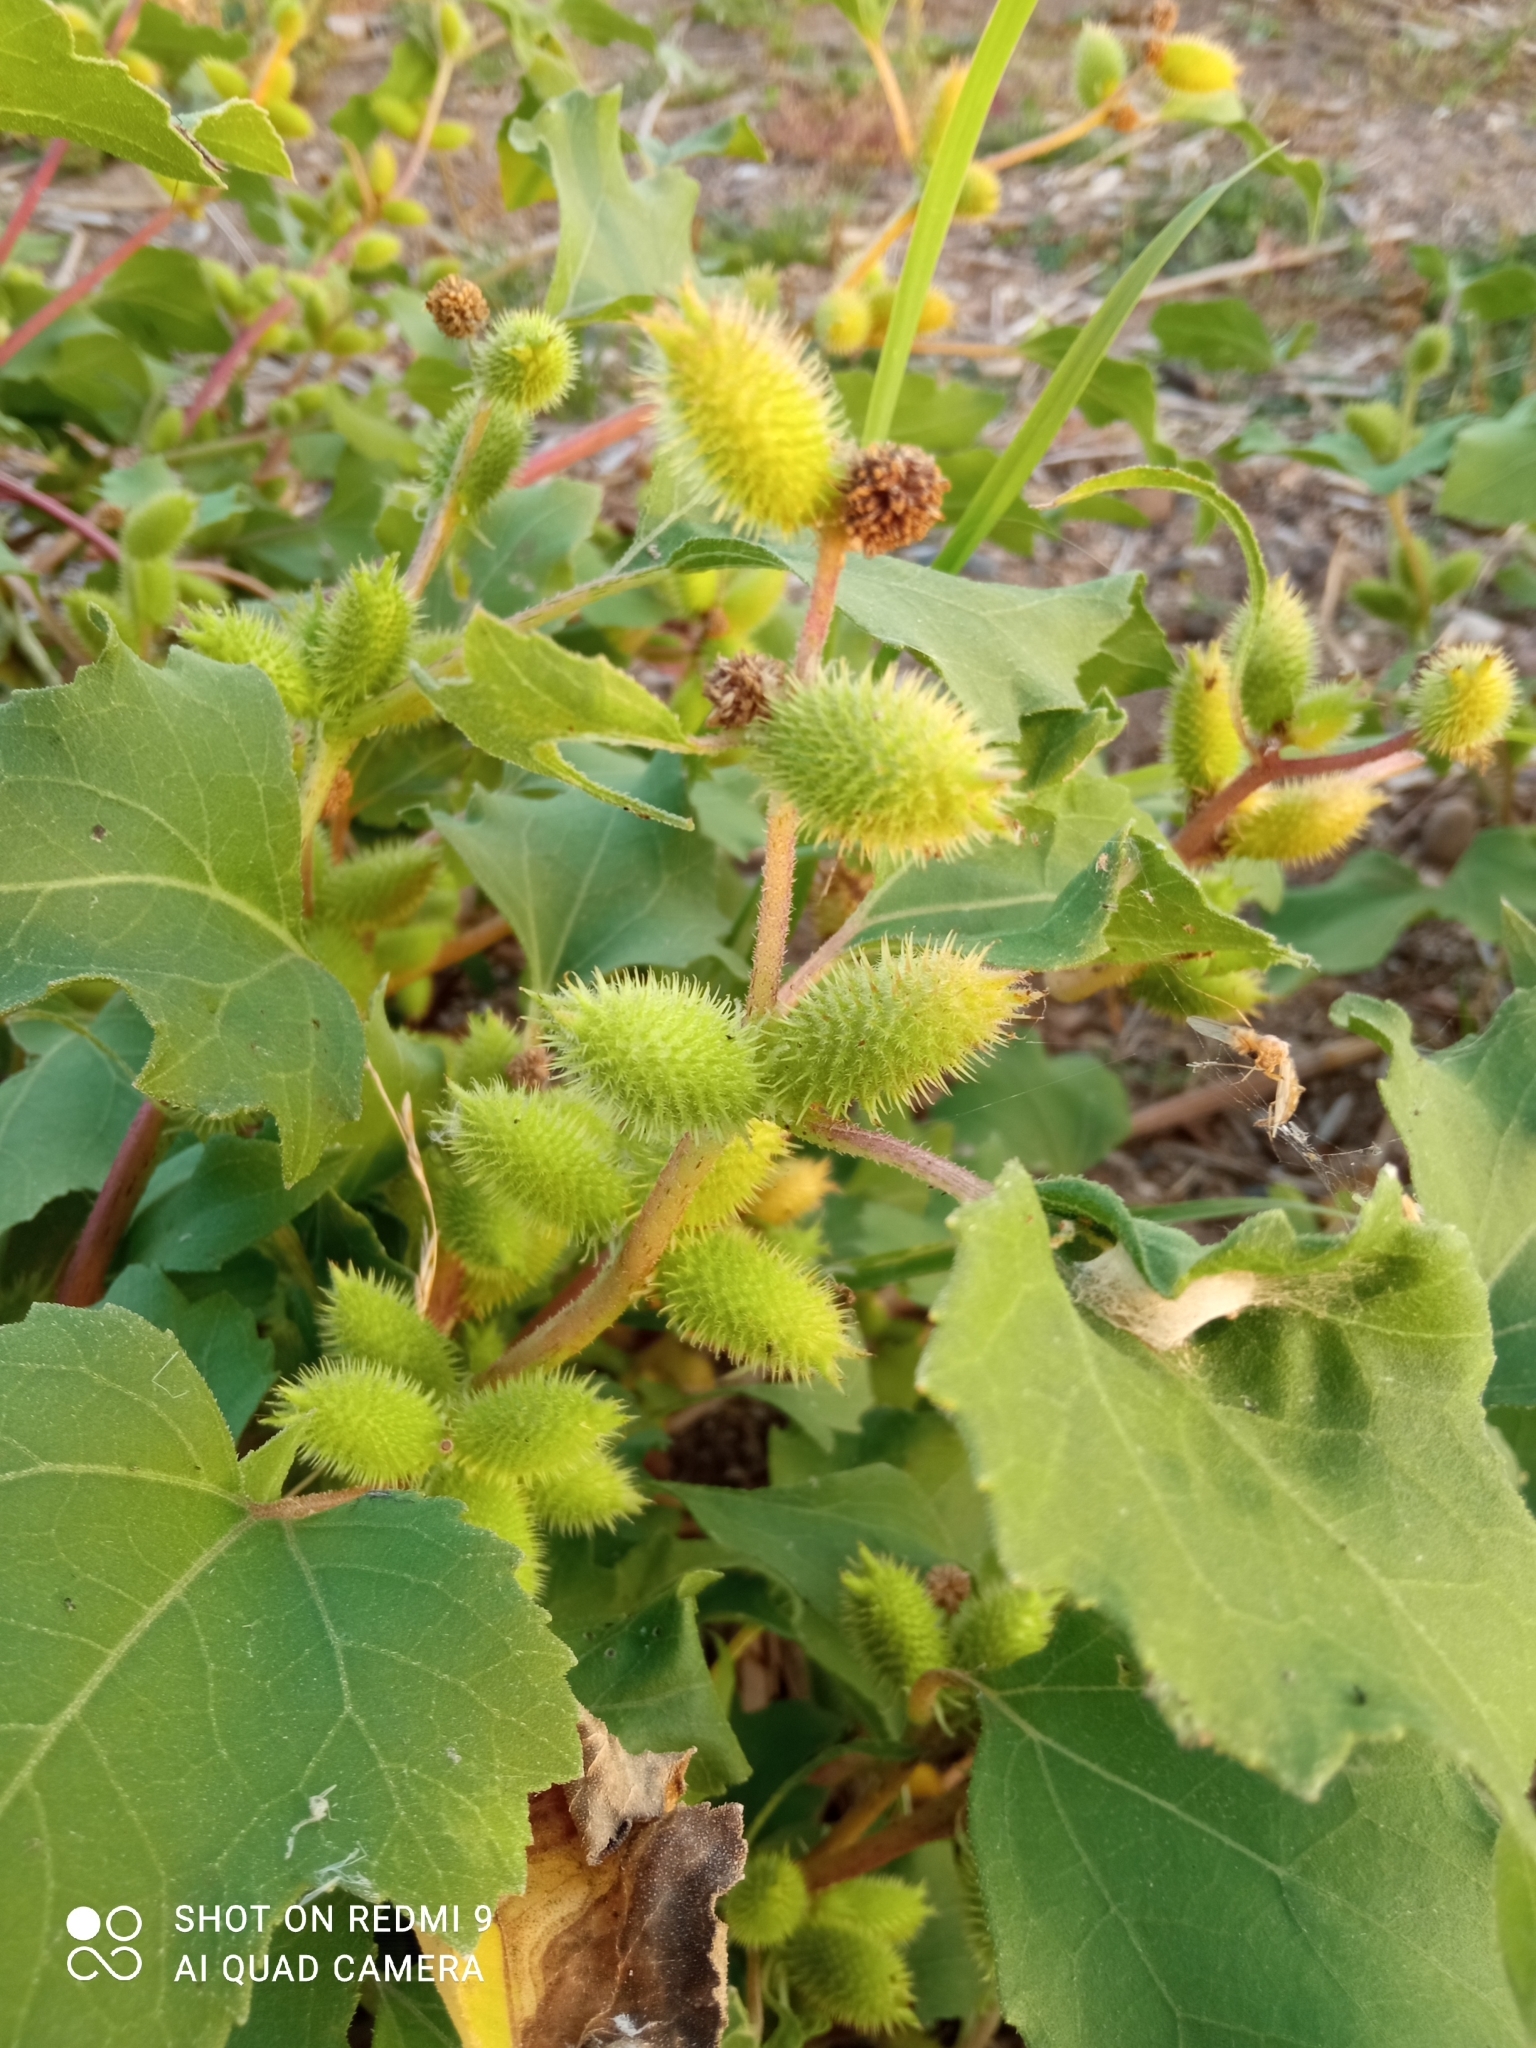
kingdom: Plantae
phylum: Tracheophyta
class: Magnoliopsida
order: Asterales
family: Asteraceae
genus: Xanthium
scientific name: Xanthium orientale
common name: Californian burr
